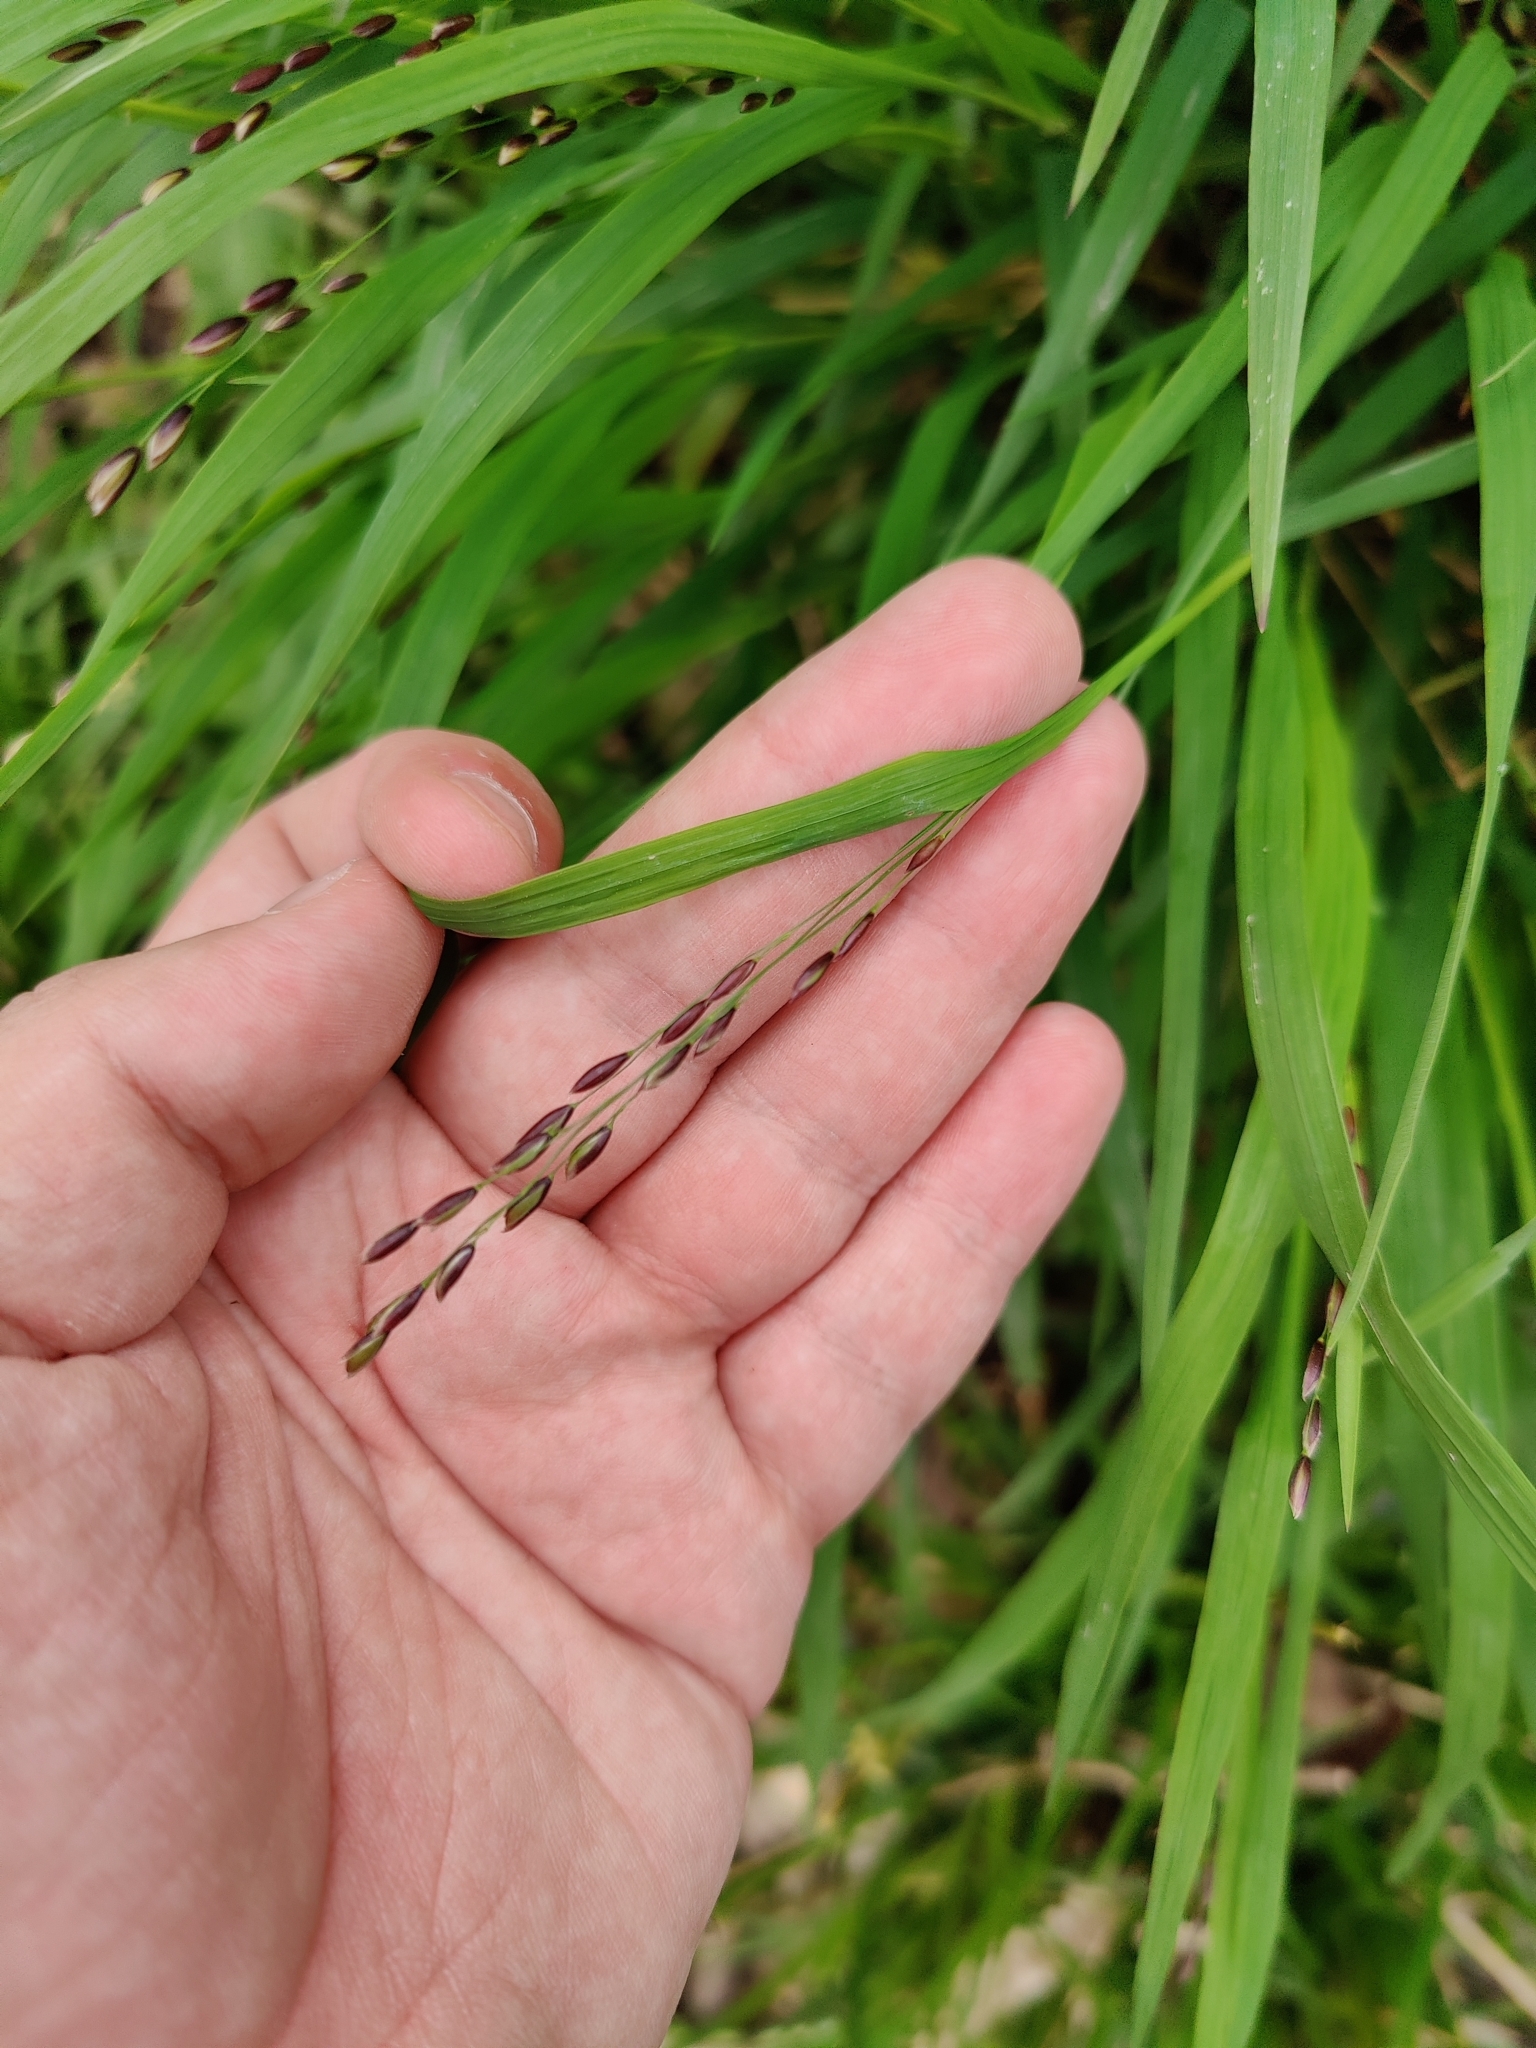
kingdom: Plantae
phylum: Tracheophyta
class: Liliopsida
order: Poales
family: Poaceae
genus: Melica
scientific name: Melica uniflora
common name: Wood melick
